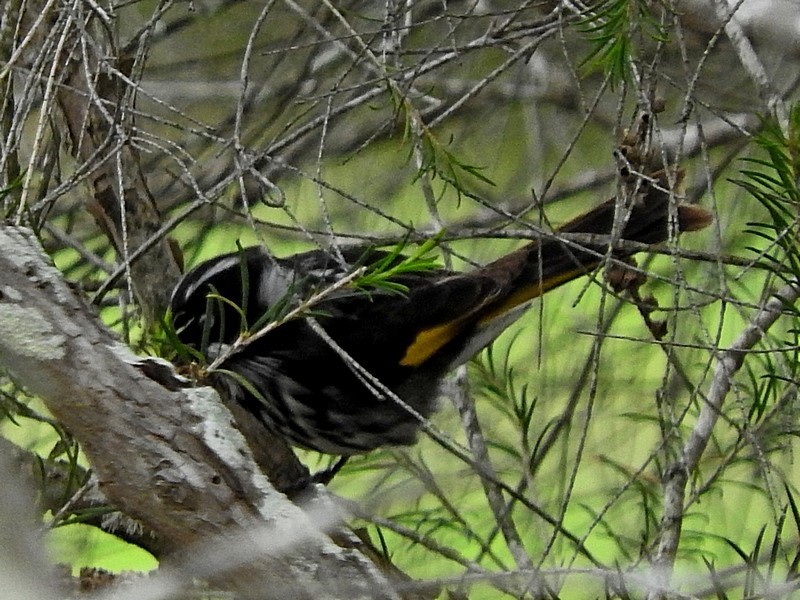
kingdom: Animalia
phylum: Chordata
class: Aves
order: Passeriformes
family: Meliphagidae
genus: Phylidonyris
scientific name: Phylidonyris novaehollandiae
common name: New holland honeyeater
